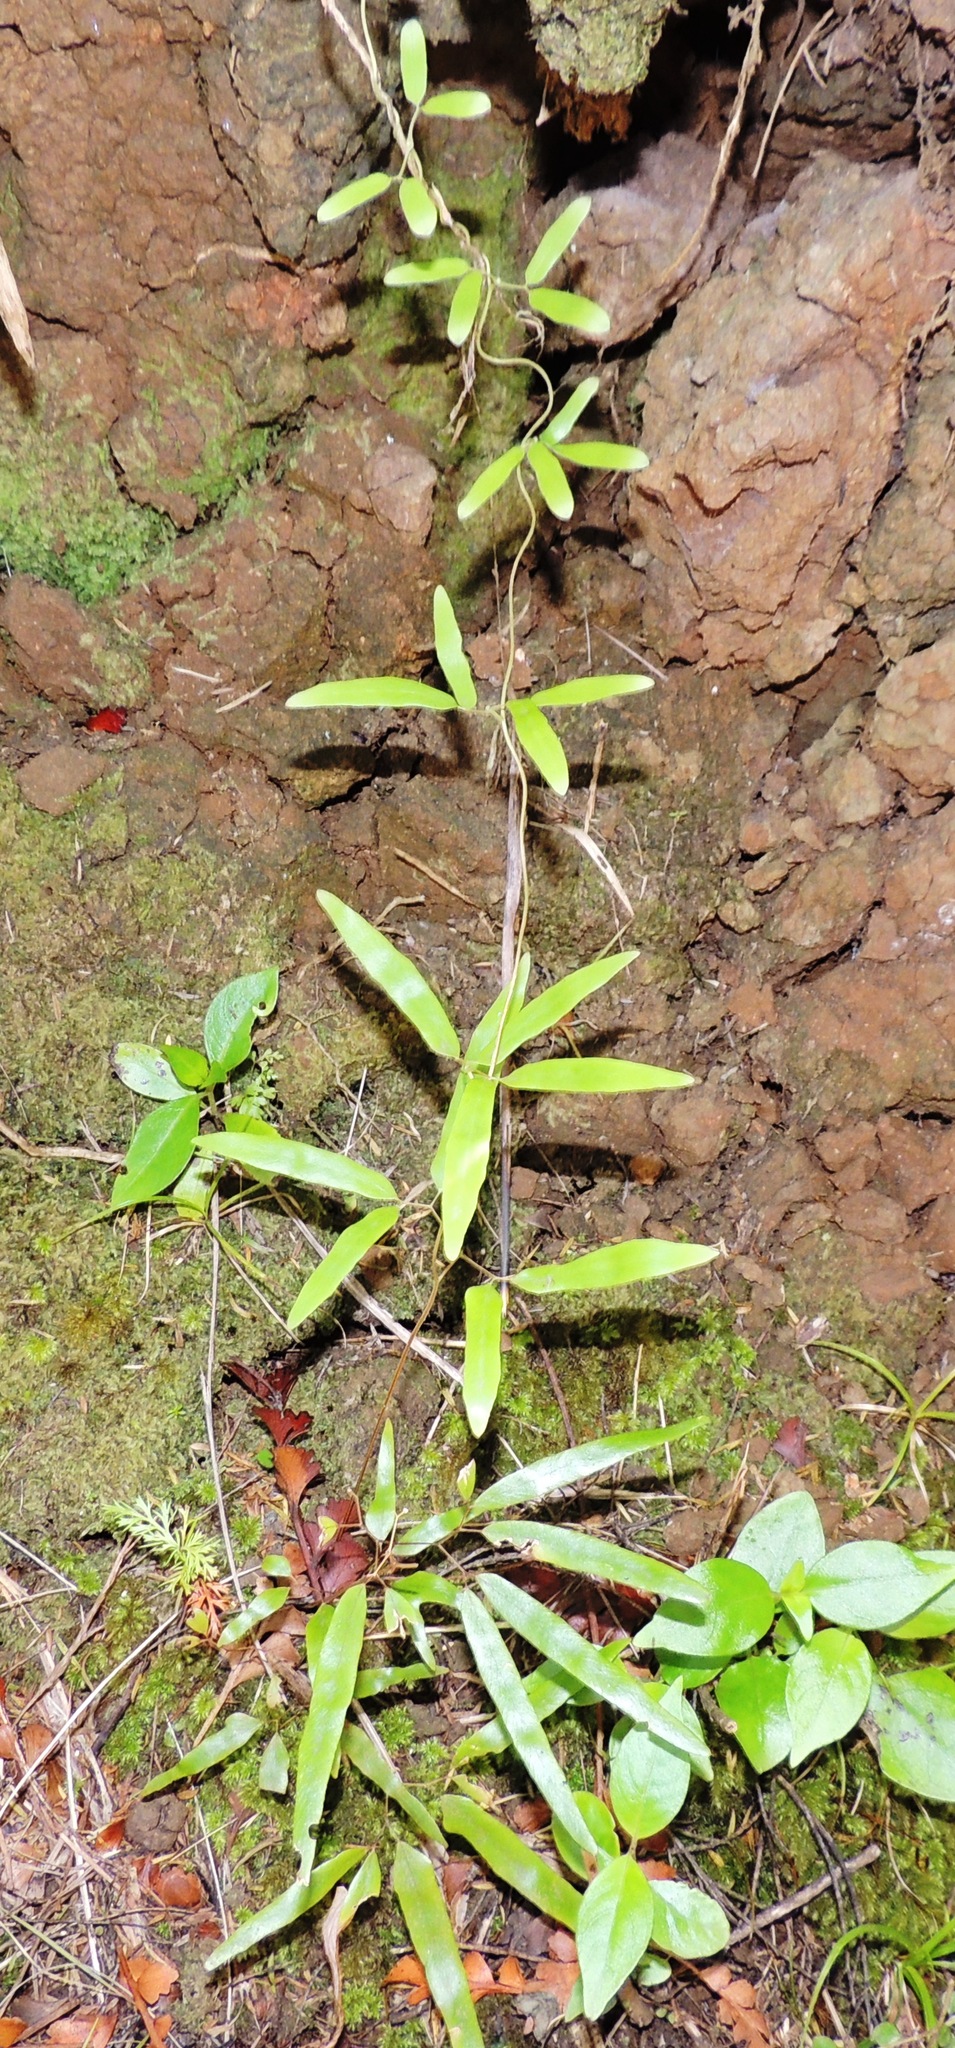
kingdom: Plantae
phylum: Tracheophyta
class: Polypodiopsida
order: Schizaeales
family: Lygodiaceae
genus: Lygodium
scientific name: Lygodium articulatum
